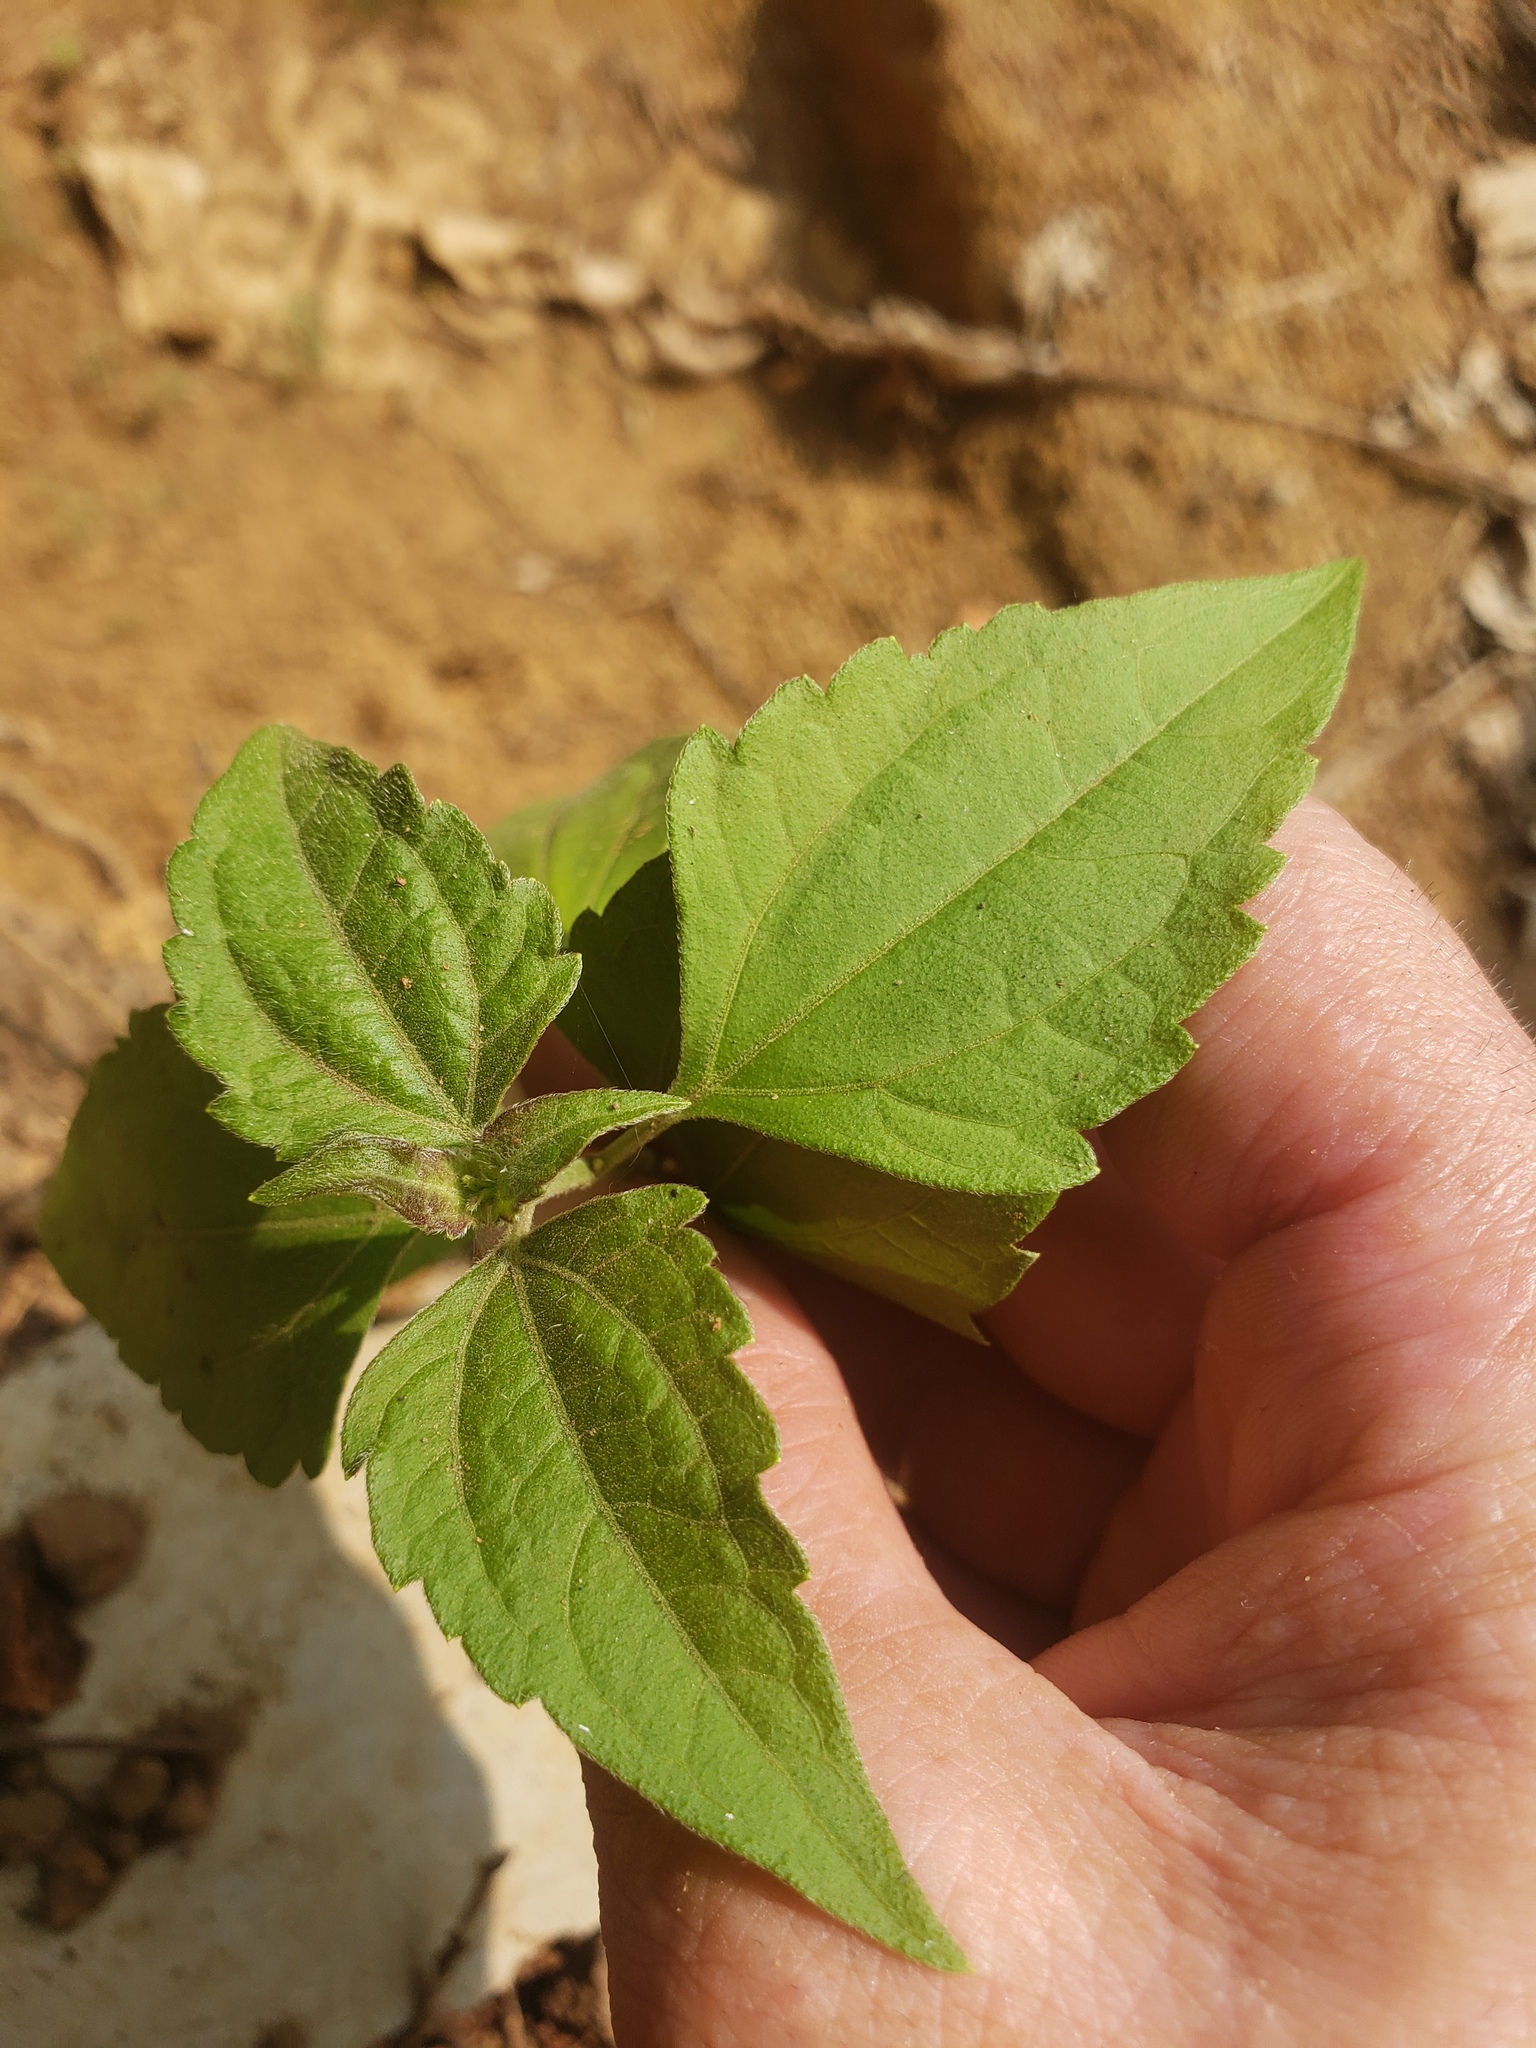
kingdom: Plantae
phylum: Tracheophyta
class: Magnoliopsida
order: Asterales
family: Asteraceae
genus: Chromolaena
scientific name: Chromolaena odorata
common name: Siamweed
